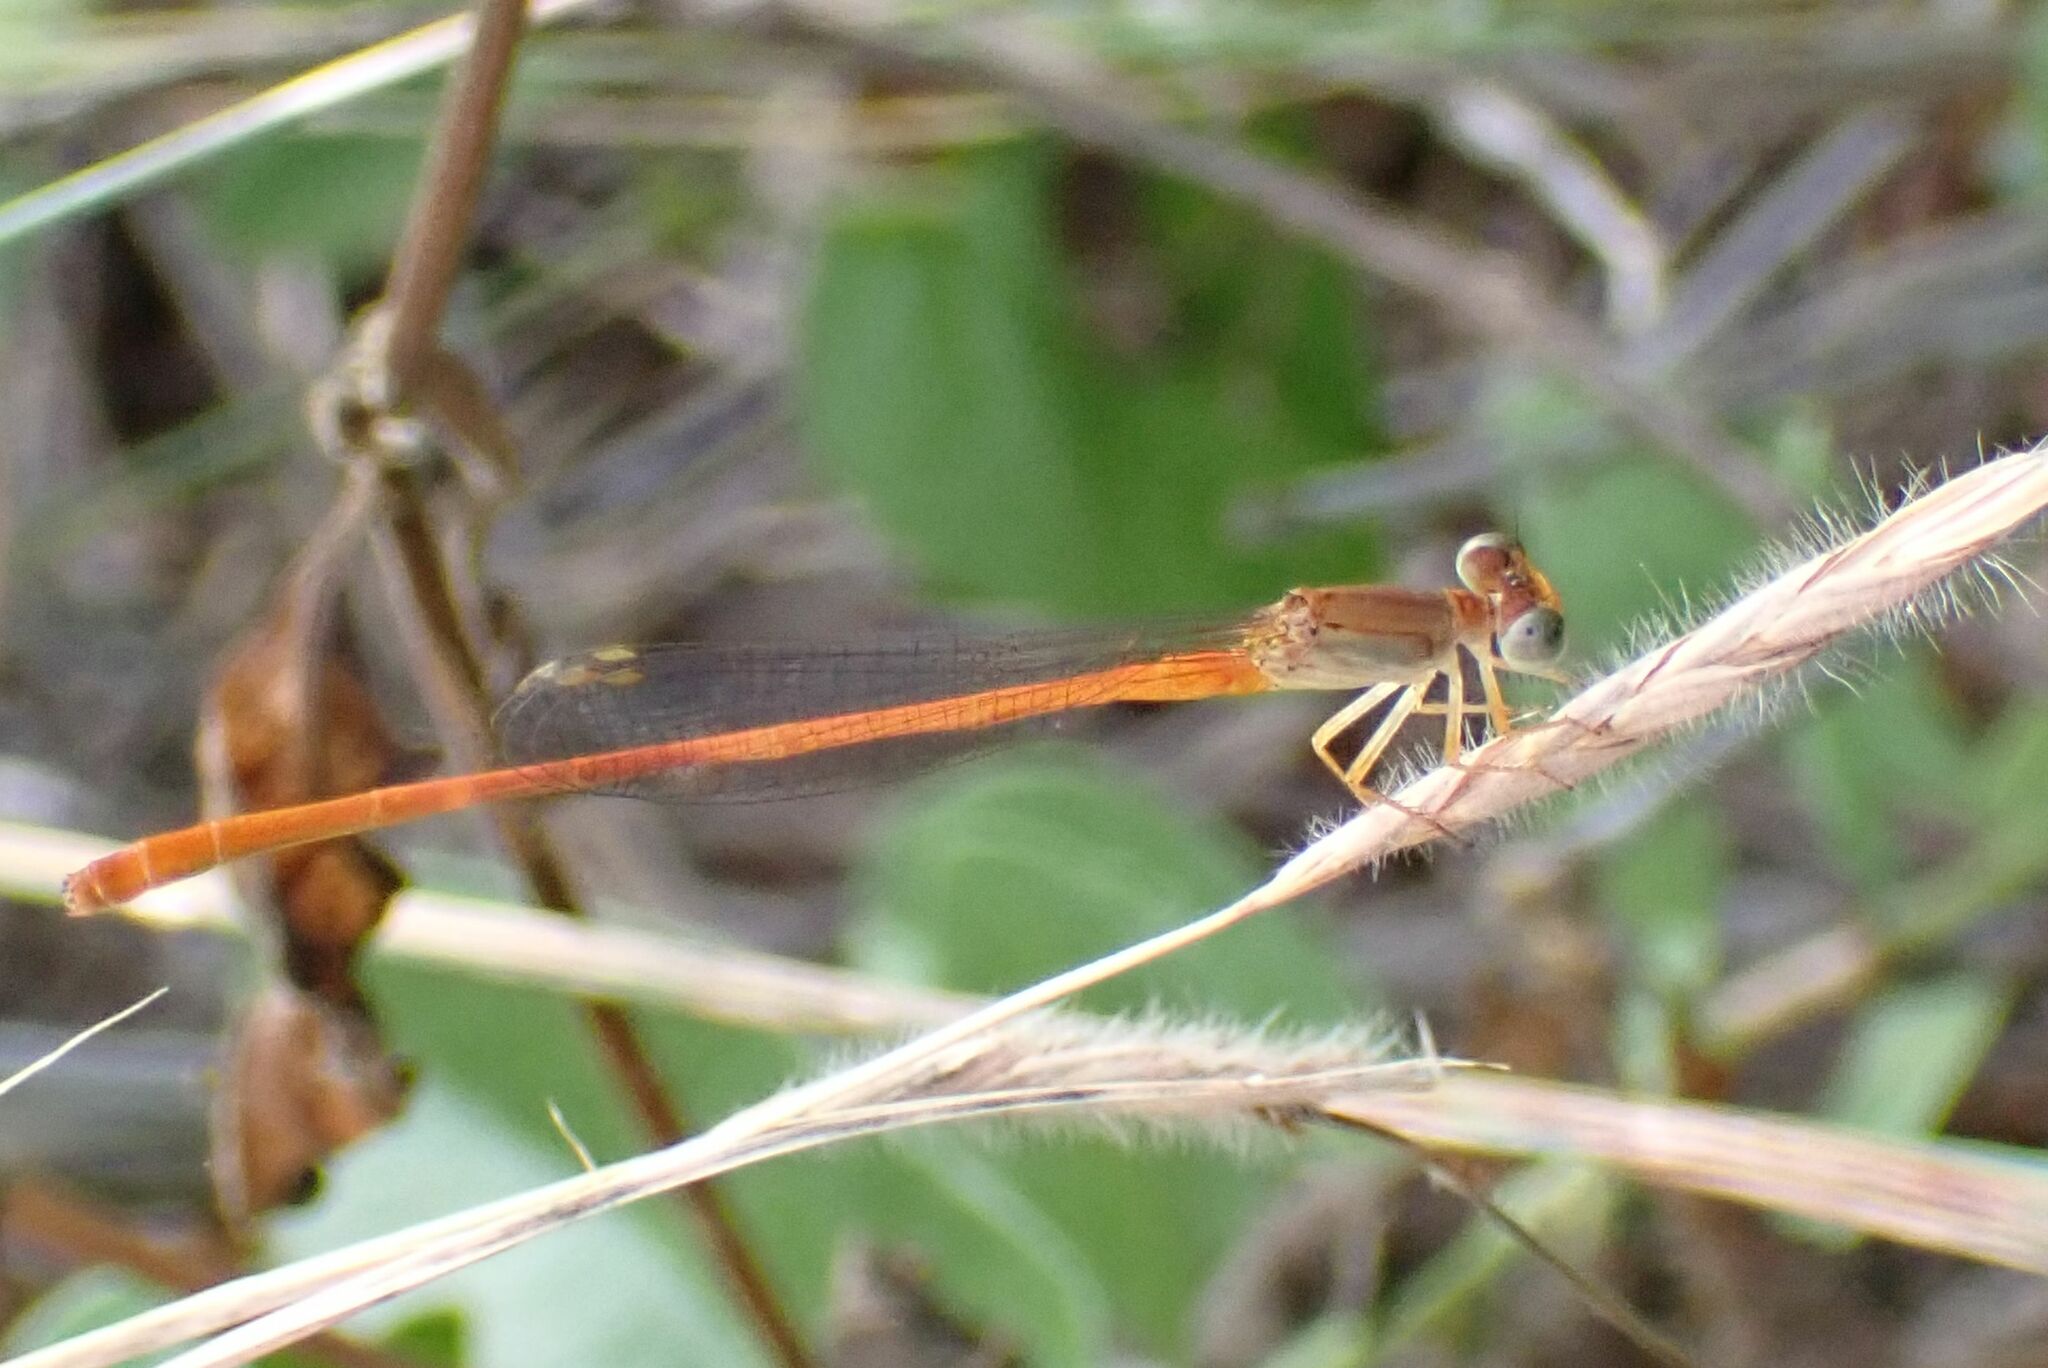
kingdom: Animalia
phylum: Arthropoda
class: Insecta
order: Odonata
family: Coenagrionidae
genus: Ceriagrion
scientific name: Ceriagrion glabrum
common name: Common pond damsel
